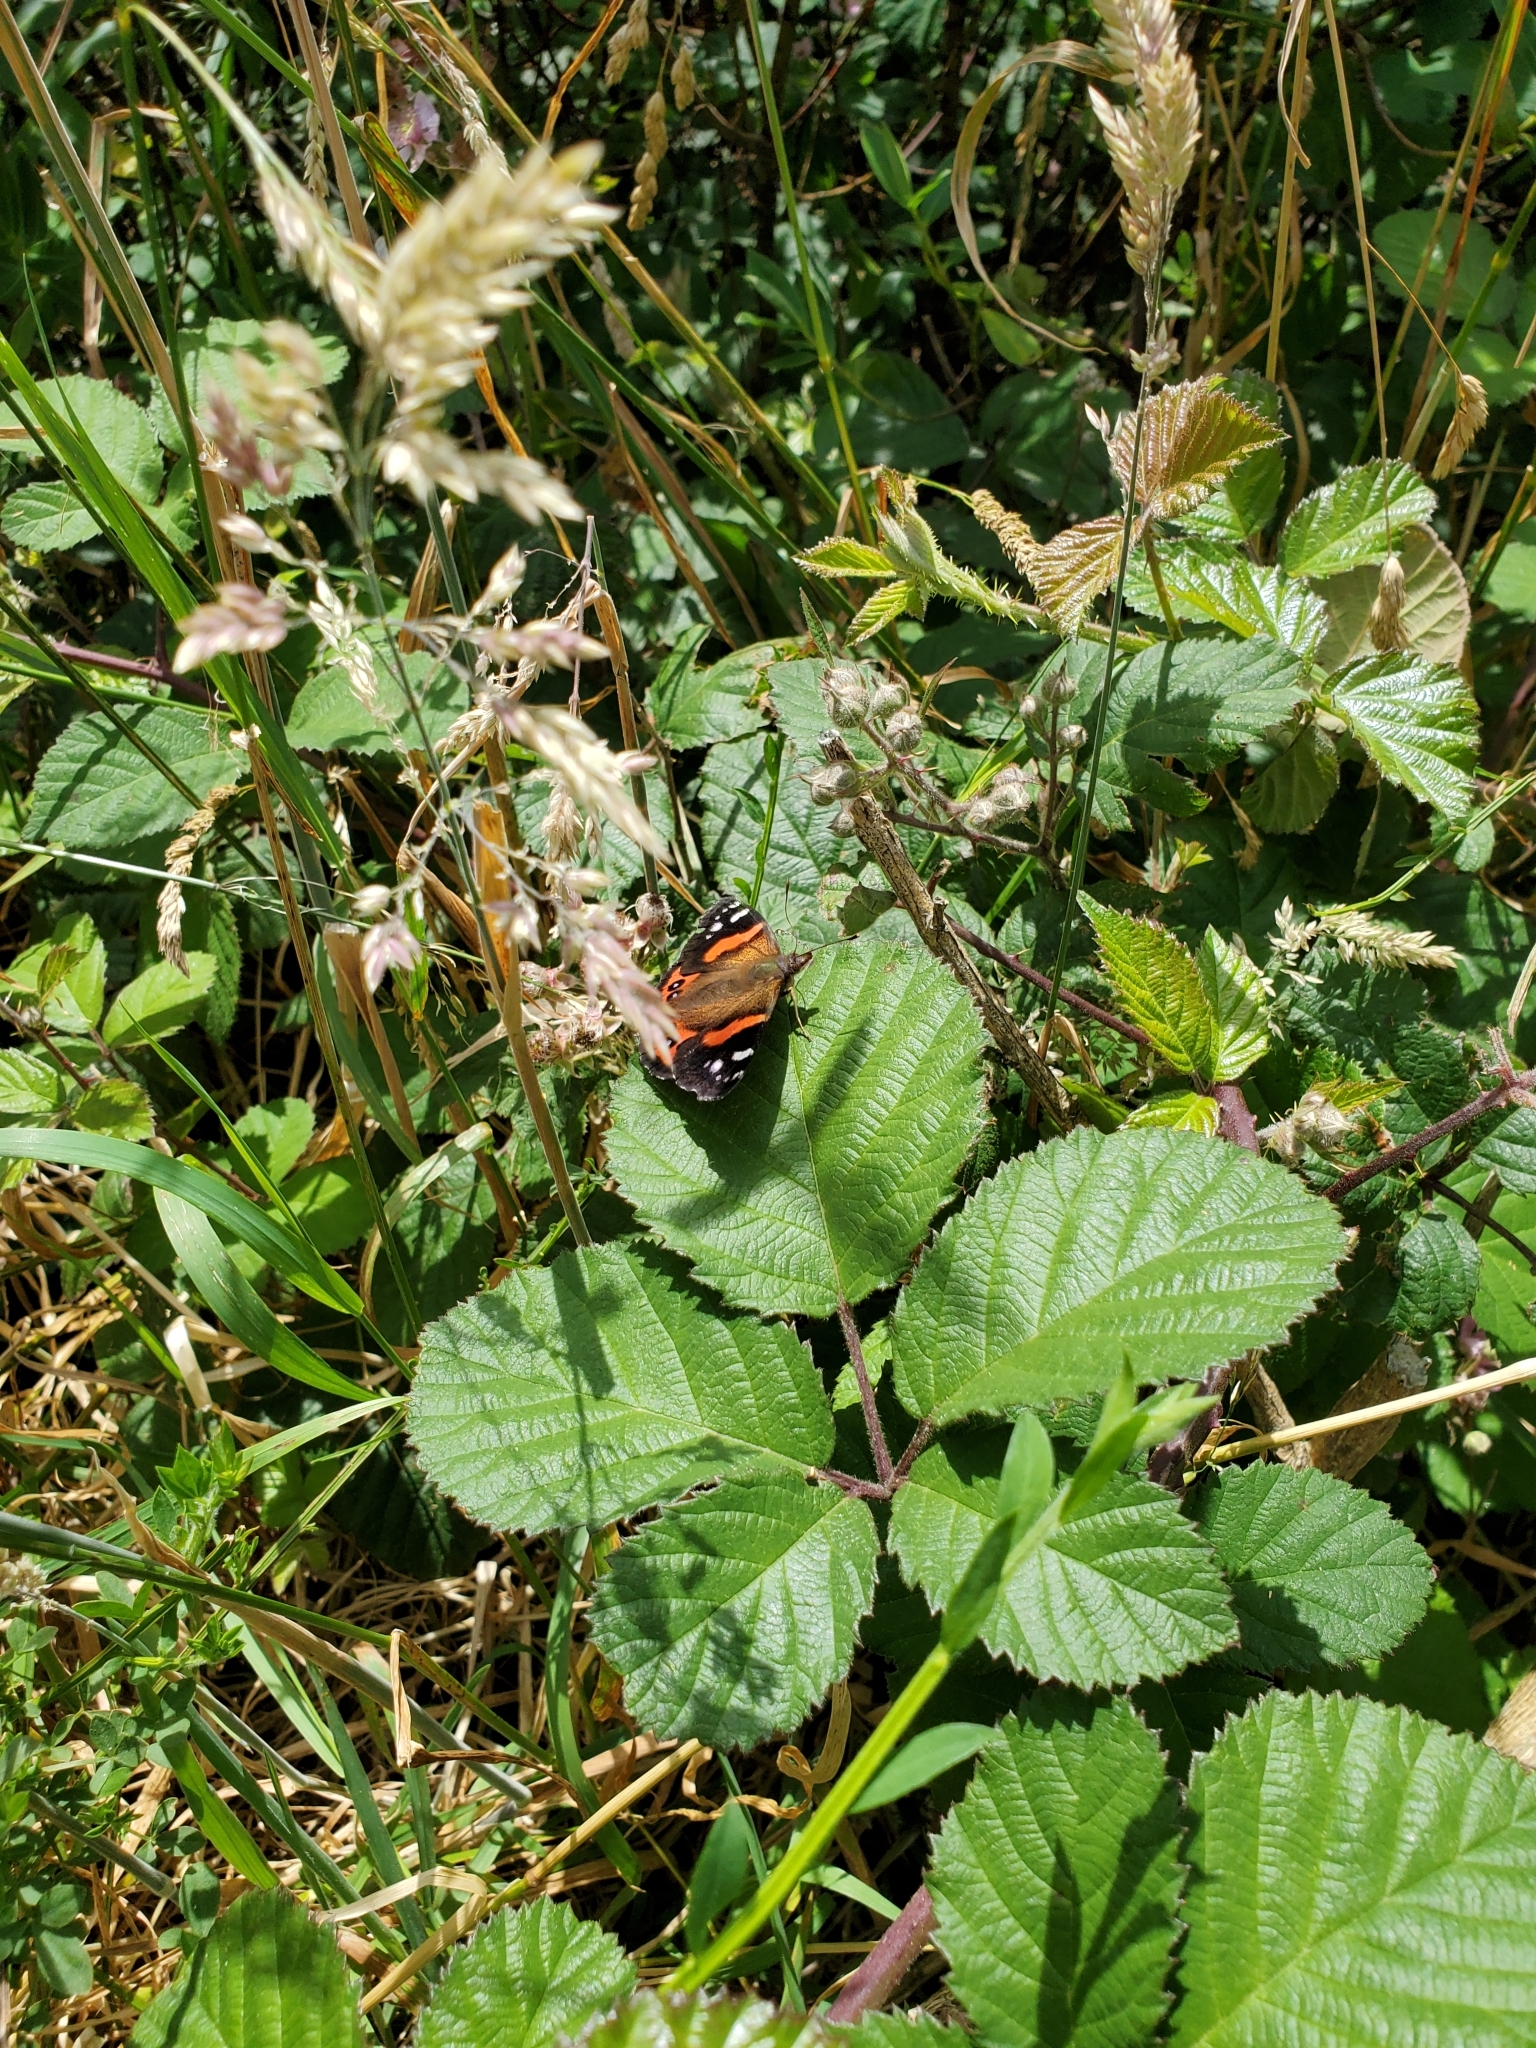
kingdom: Animalia
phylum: Arthropoda
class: Insecta
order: Lepidoptera
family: Nymphalidae
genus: Vanessa
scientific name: Vanessa gonerilla
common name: New zealand red admiral
